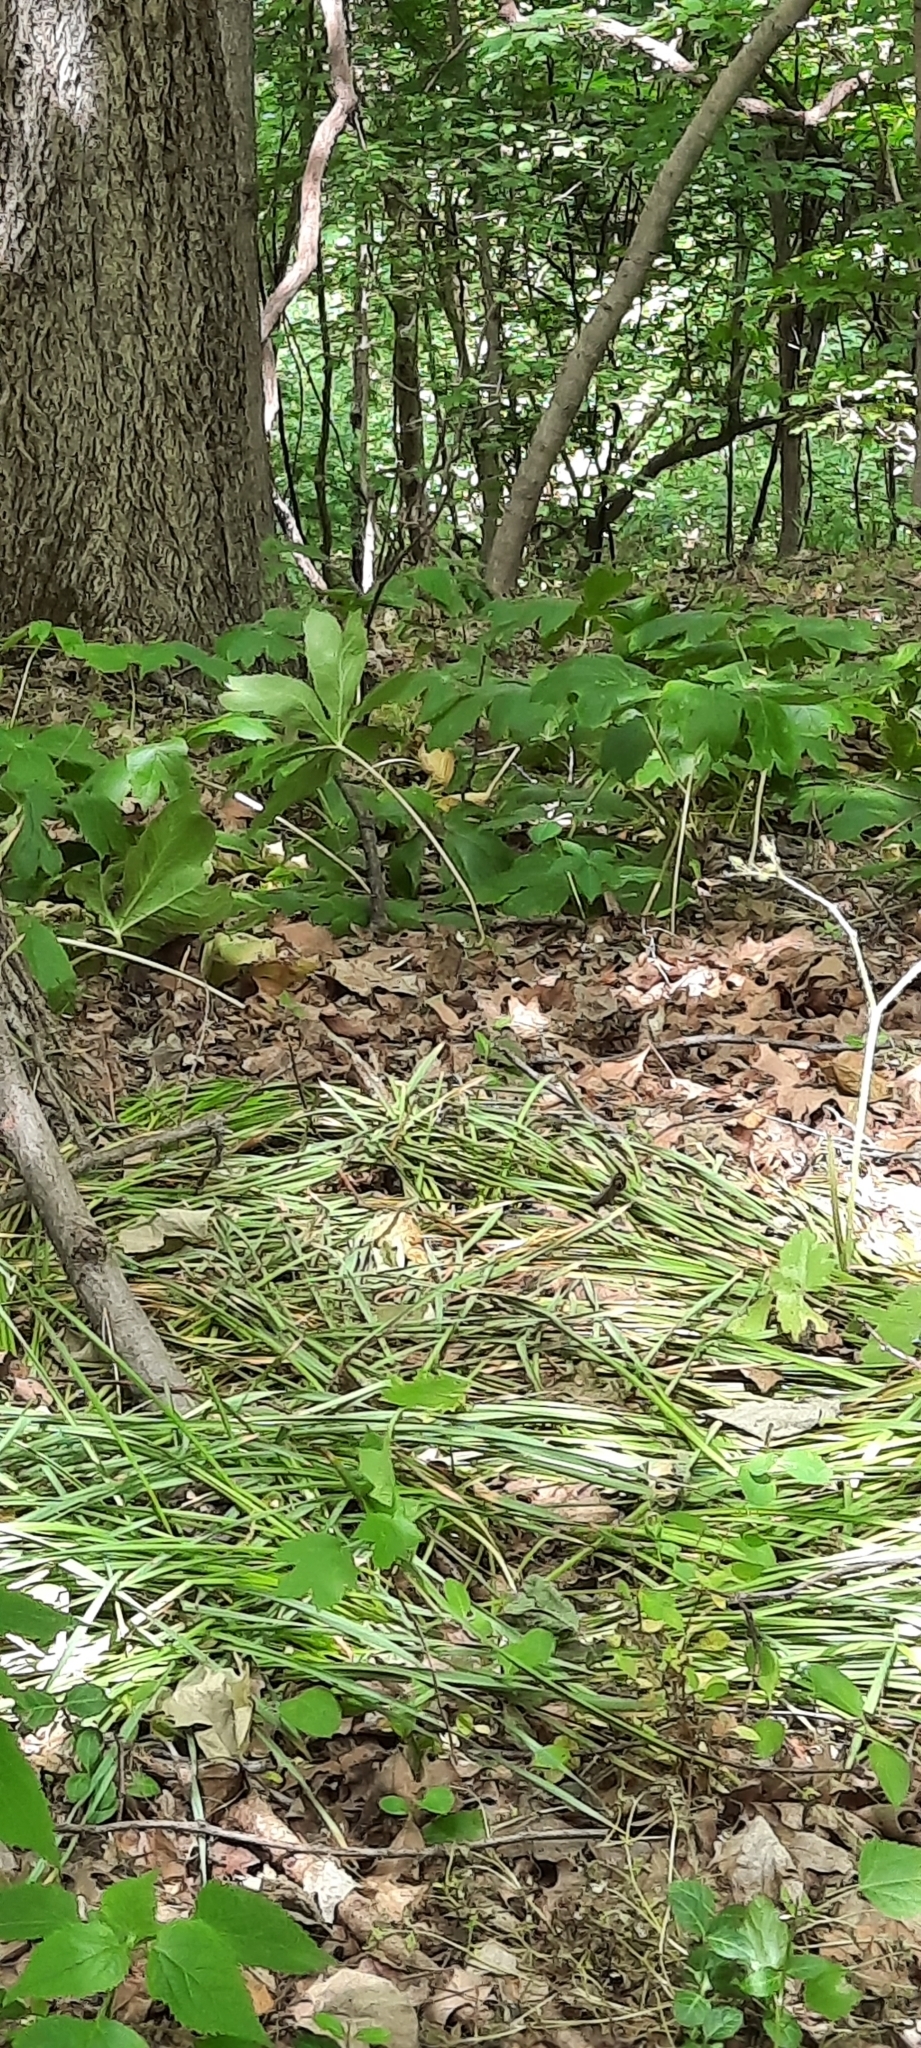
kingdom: Plantae
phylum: Tracheophyta
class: Magnoliopsida
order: Ranunculales
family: Berberidaceae
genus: Podophyllum
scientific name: Podophyllum peltatum
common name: Wild mandrake
